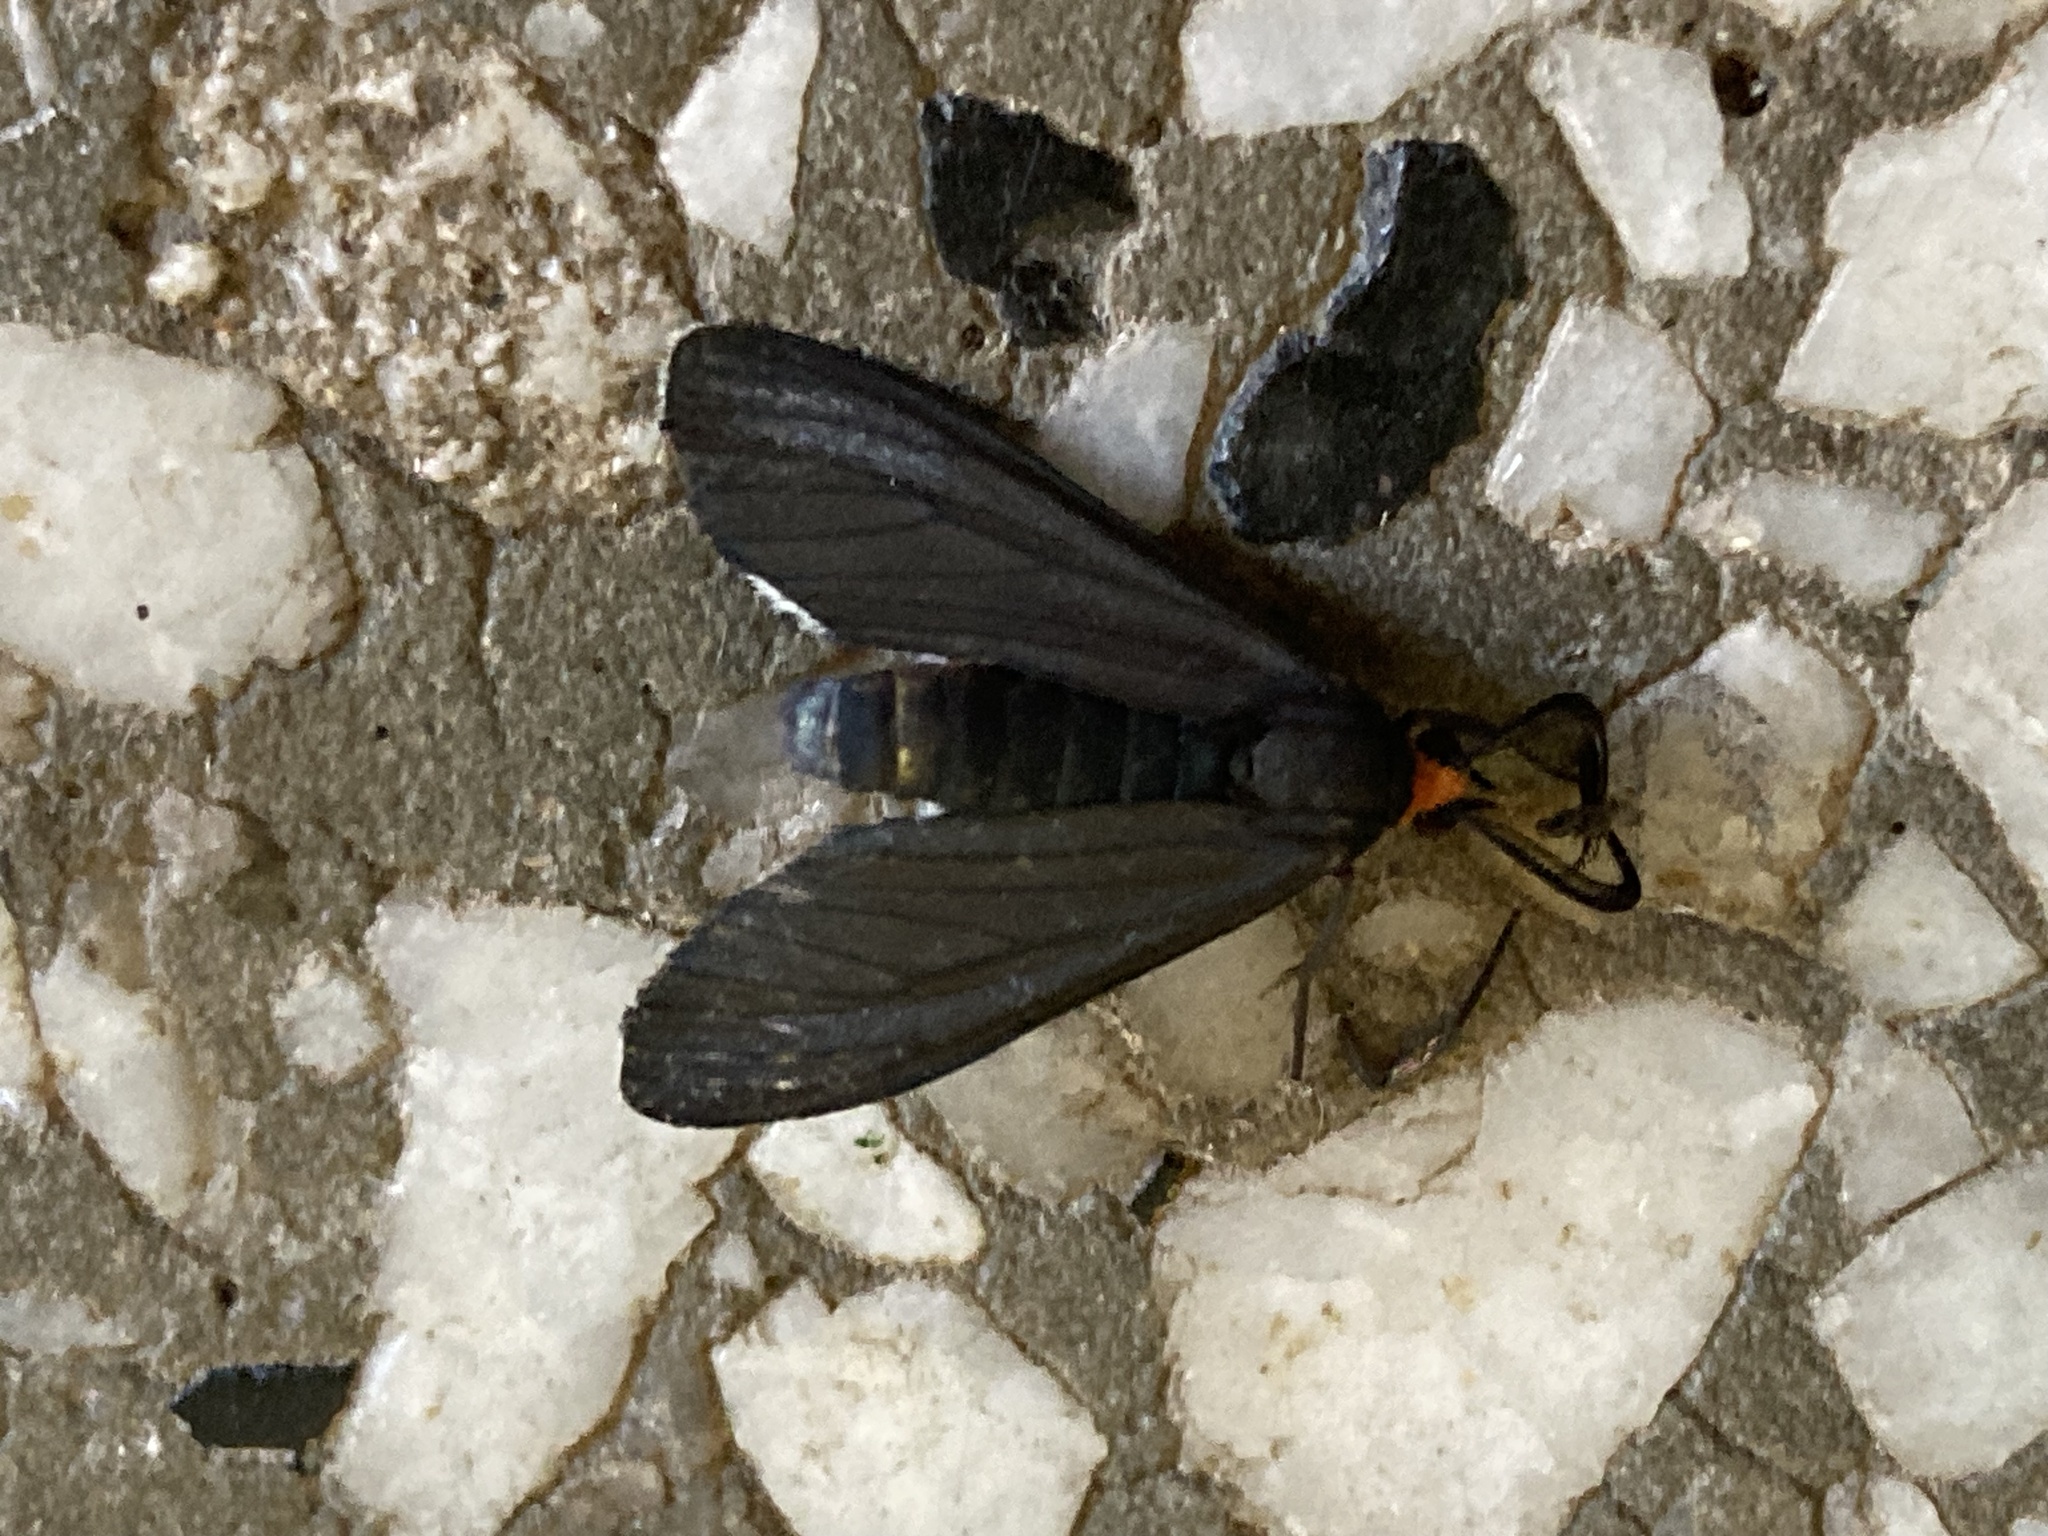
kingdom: Animalia
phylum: Arthropoda
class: Insecta
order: Lepidoptera
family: Erebidae
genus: Ctenucha
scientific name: Ctenucha rubriceps
